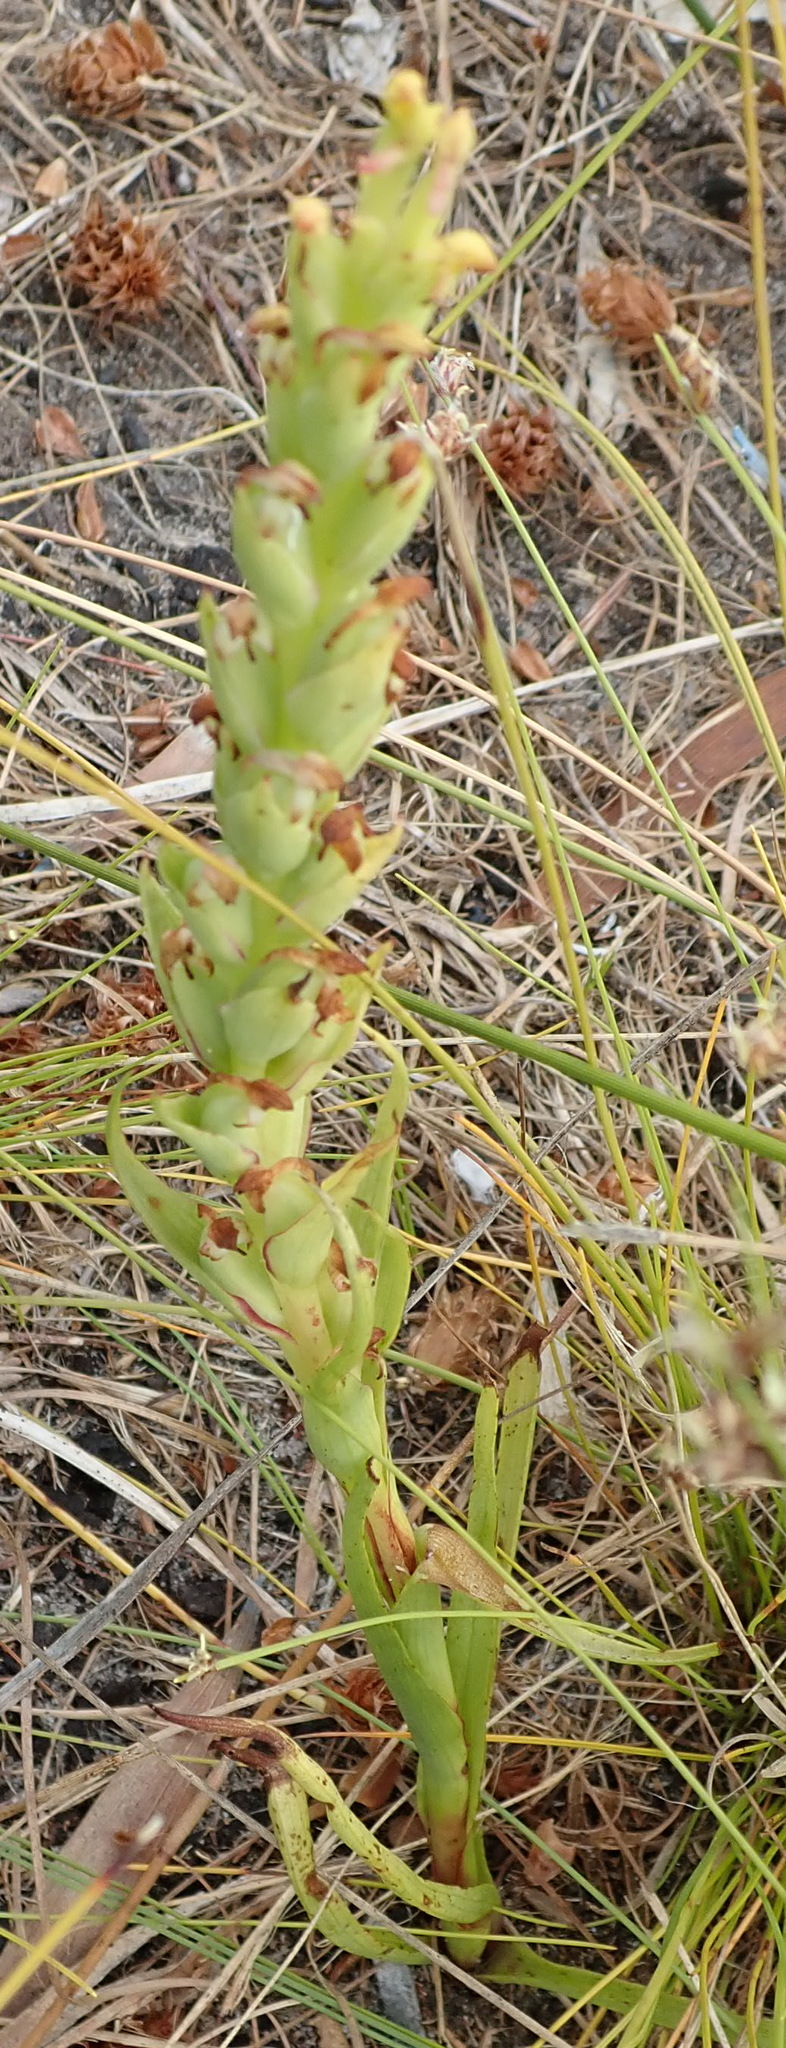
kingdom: Plantae
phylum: Tracheophyta
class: Liliopsida
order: Asparagales
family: Orchidaceae
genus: Disa
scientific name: Disa bracteata
